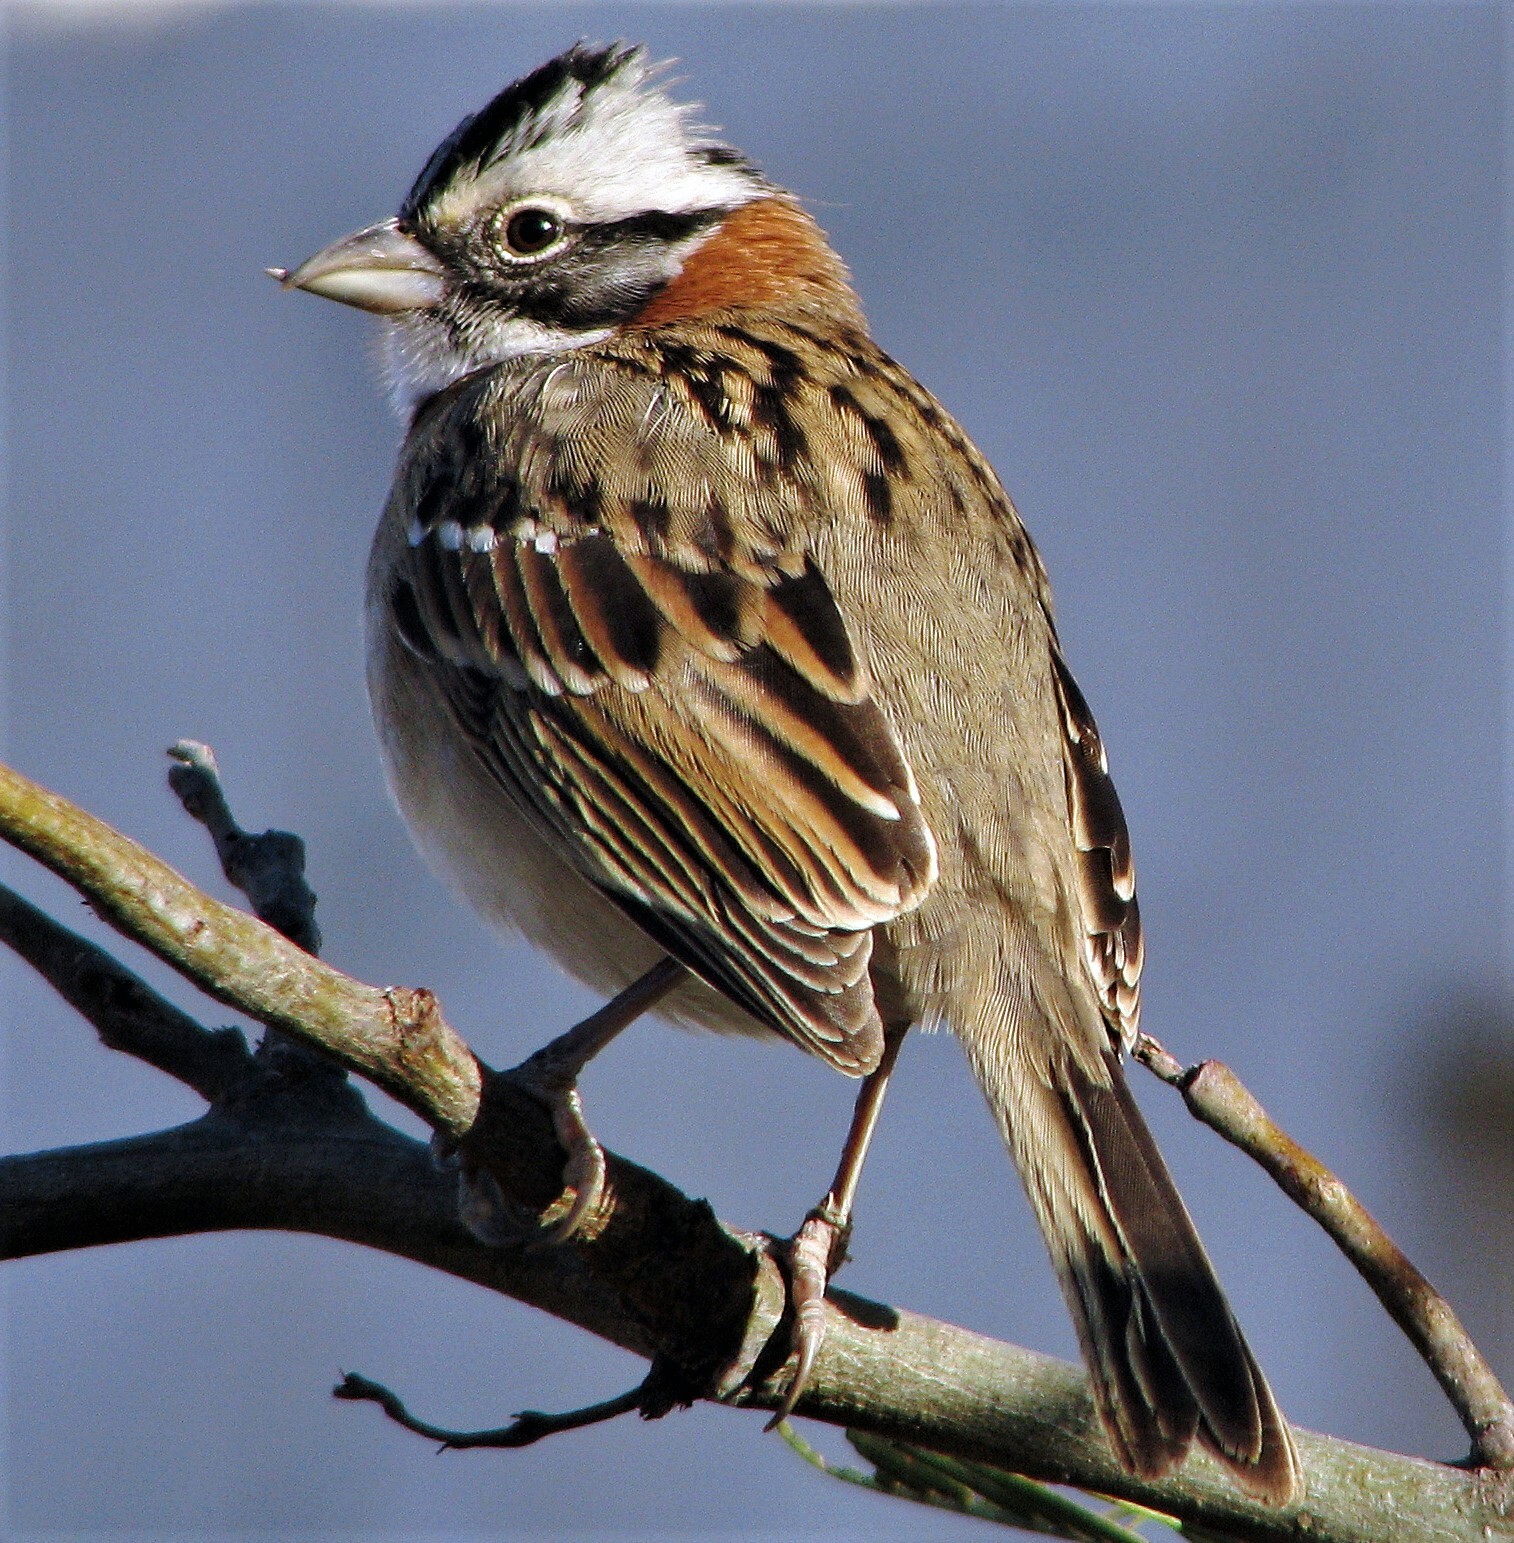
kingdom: Animalia
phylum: Chordata
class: Aves
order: Passeriformes
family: Passerellidae
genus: Zonotrichia
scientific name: Zonotrichia capensis
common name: Rufous-collared sparrow
